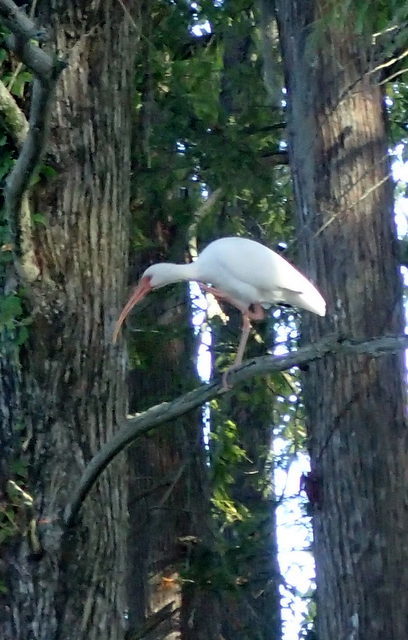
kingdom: Animalia
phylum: Chordata
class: Aves
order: Pelecaniformes
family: Threskiornithidae
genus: Eudocimus
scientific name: Eudocimus albus
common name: White ibis
